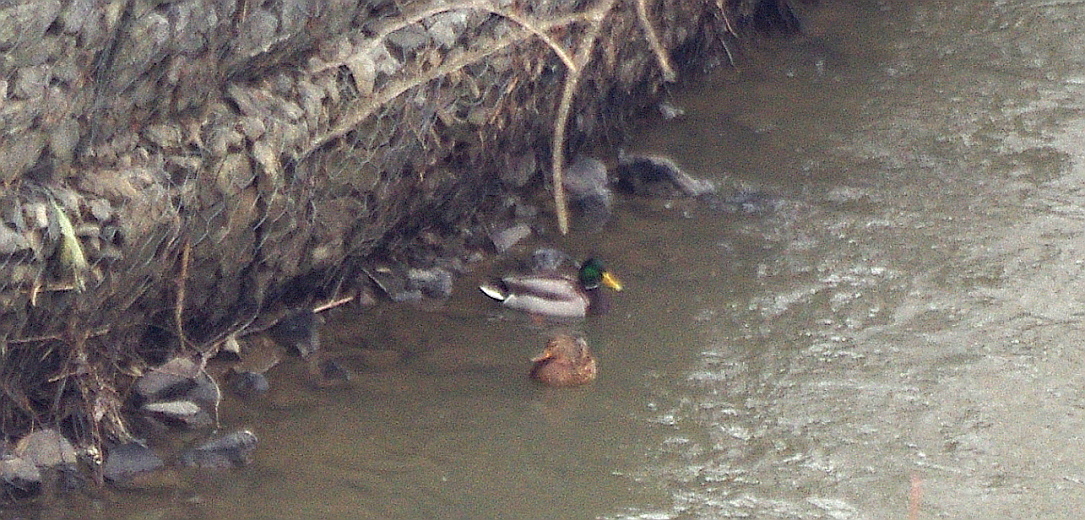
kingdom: Animalia
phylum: Chordata
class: Aves
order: Anseriformes
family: Anatidae
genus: Anas
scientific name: Anas platyrhynchos
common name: Mallard
